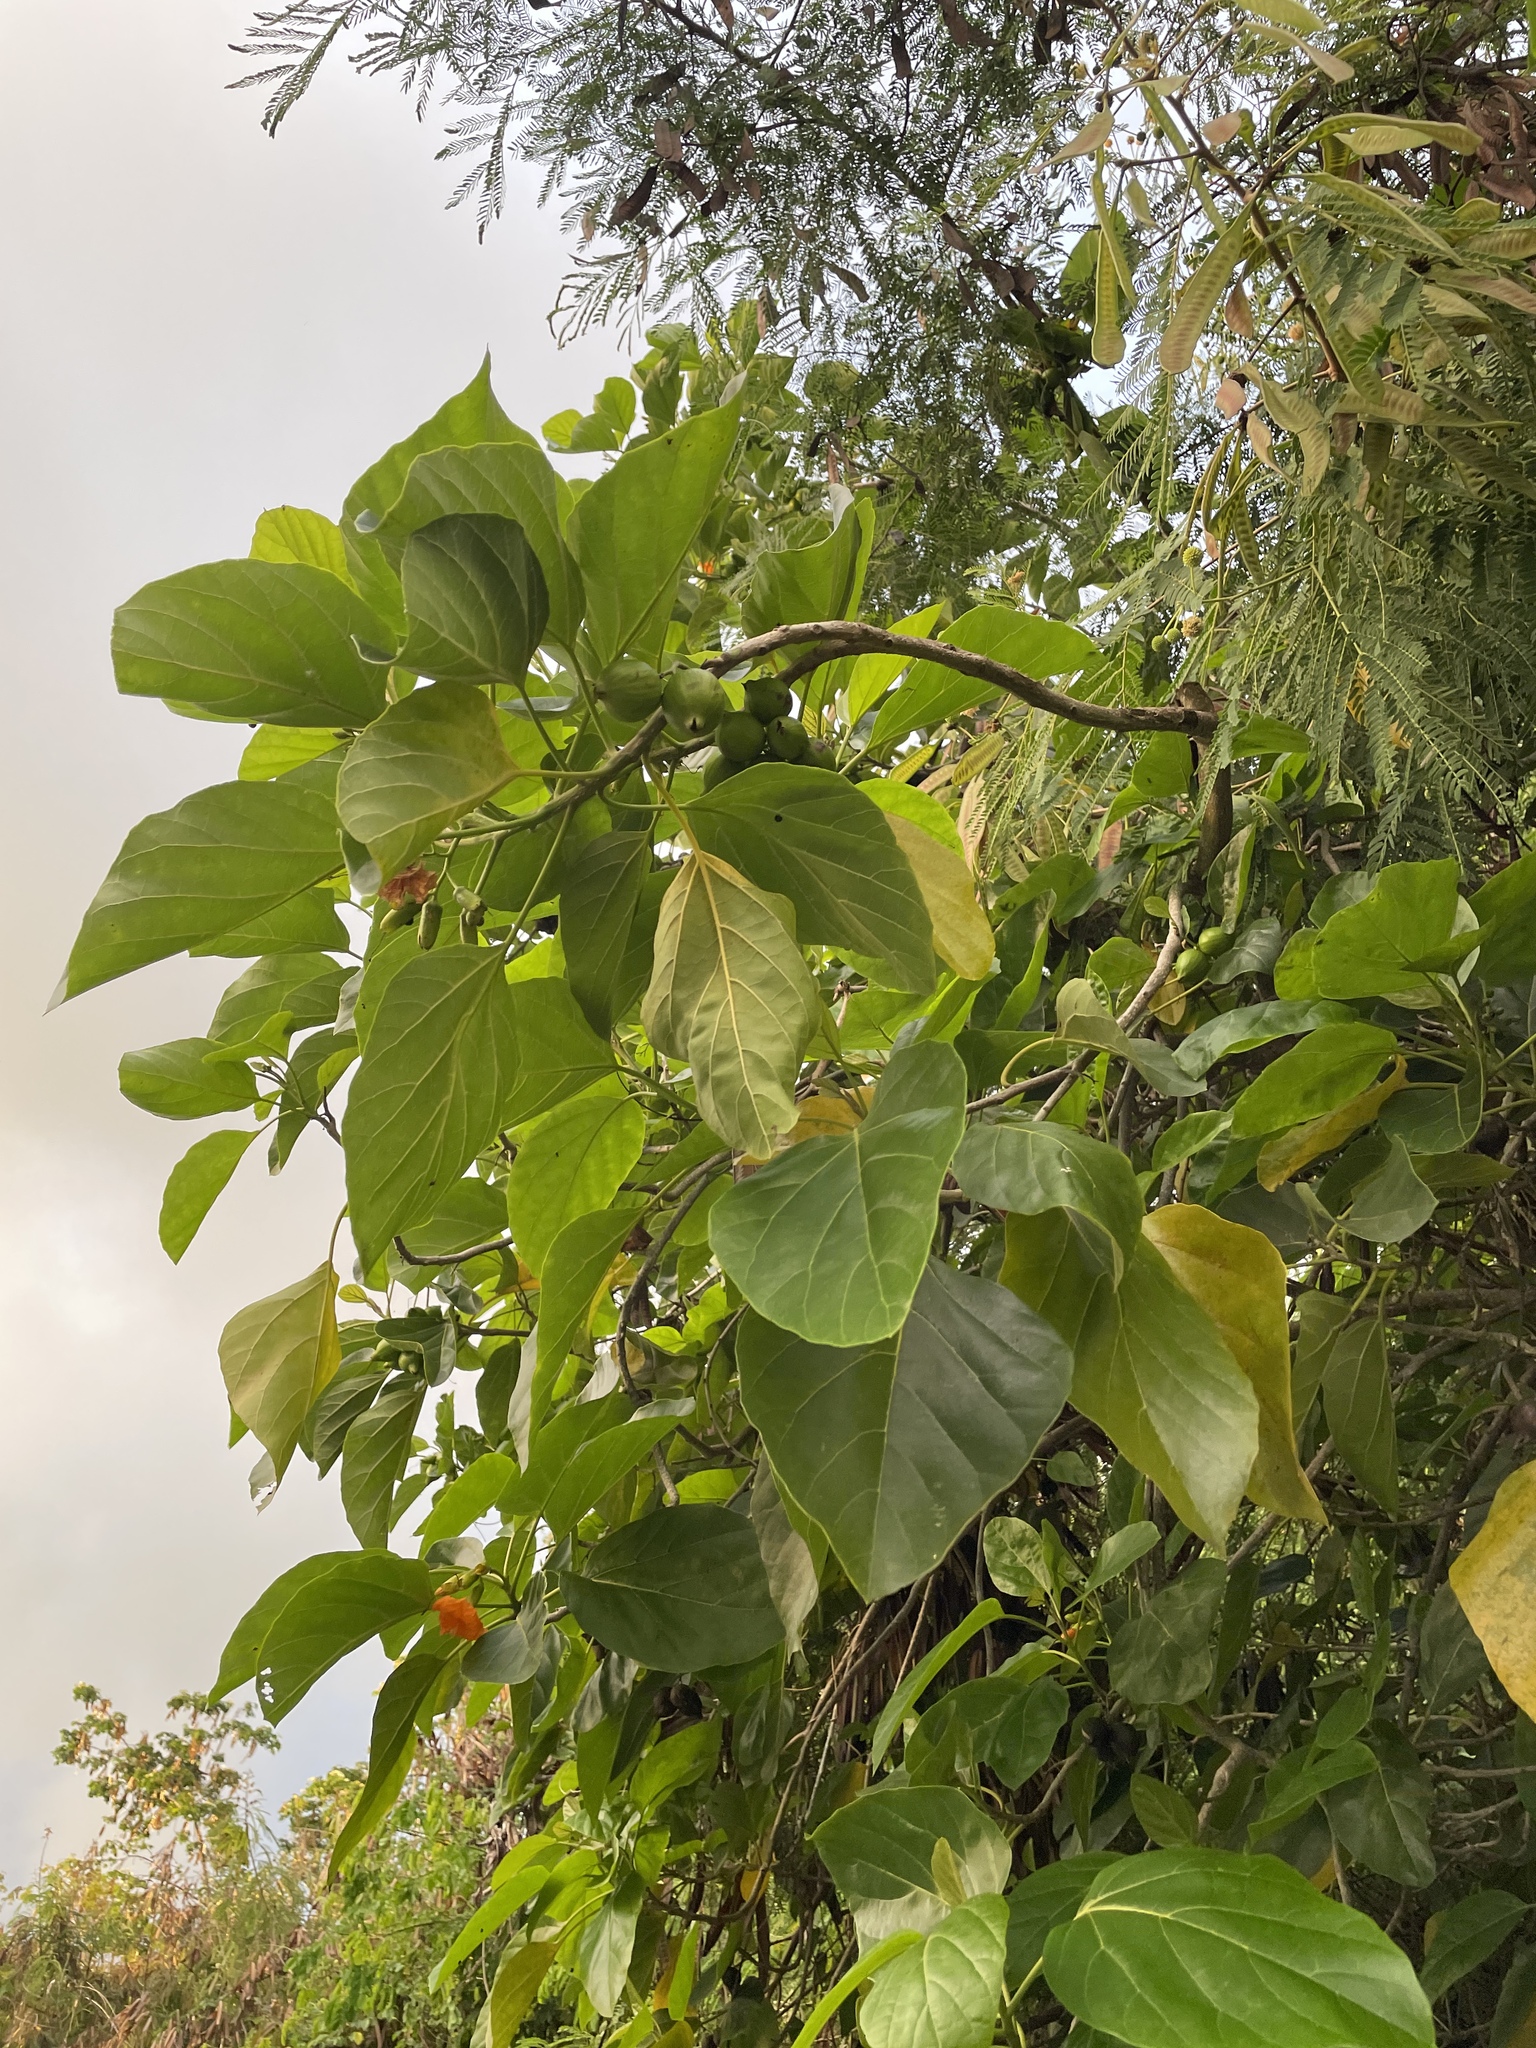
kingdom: Plantae
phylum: Tracheophyta
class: Magnoliopsida
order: Boraginales
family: Cordiaceae
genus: Cordia
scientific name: Cordia subcordata
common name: Mareer
